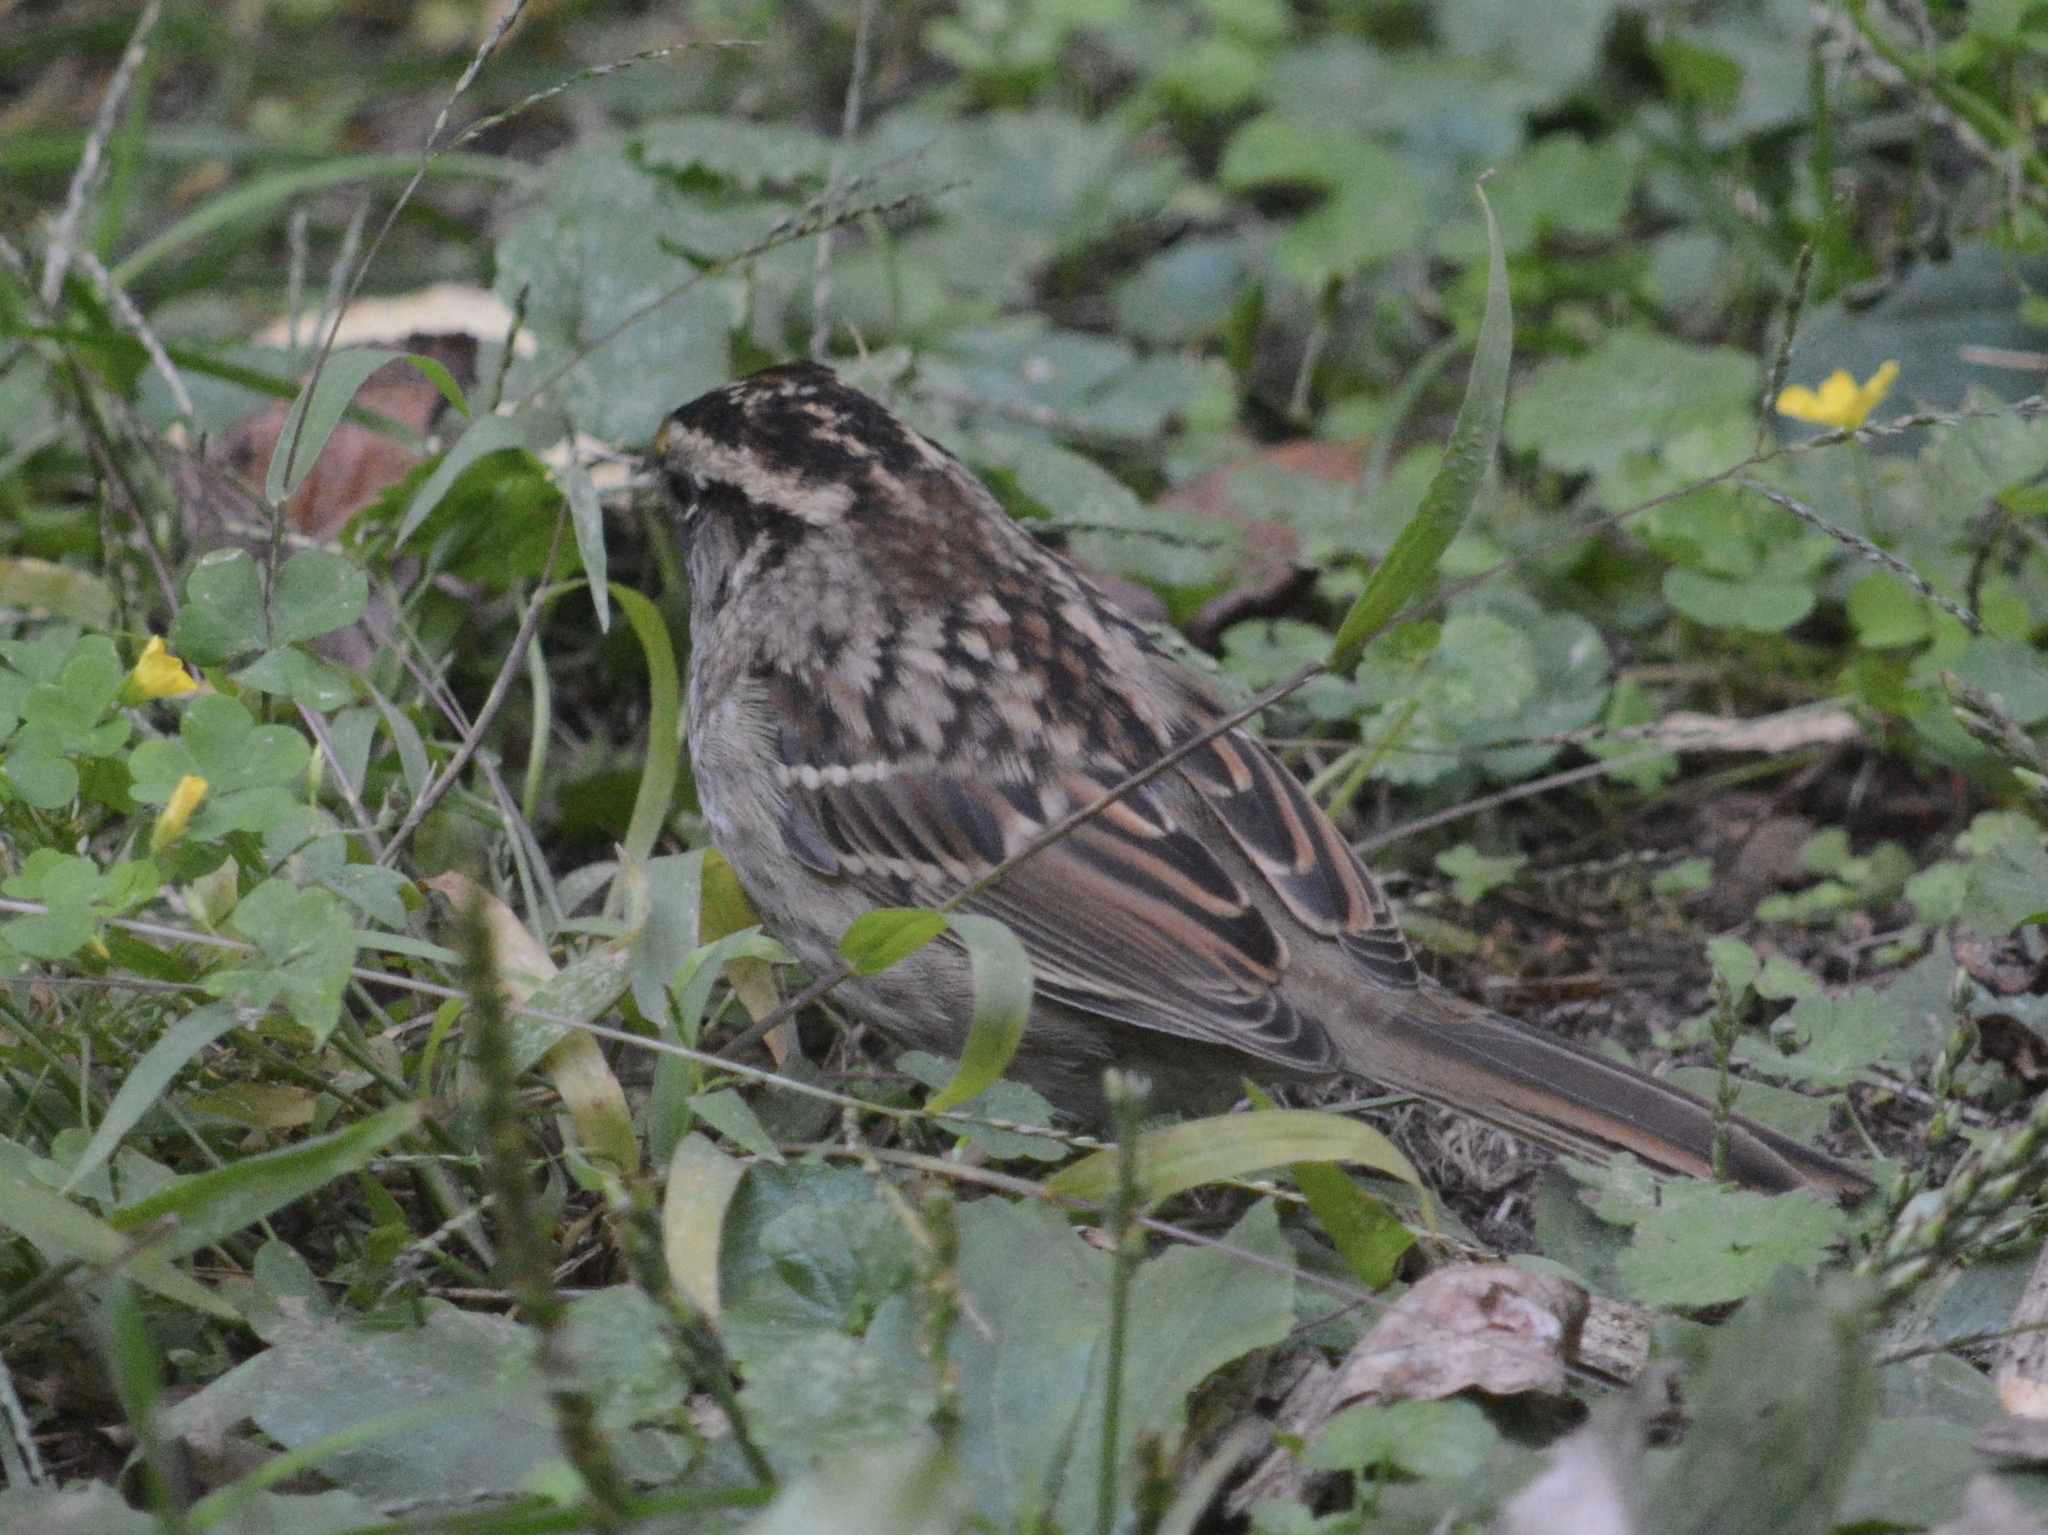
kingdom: Animalia
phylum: Chordata
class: Aves
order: Passeriformes
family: Passerellidae
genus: Zonotrichia
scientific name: Zonotrichia albicollis
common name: White-throated sparrow
